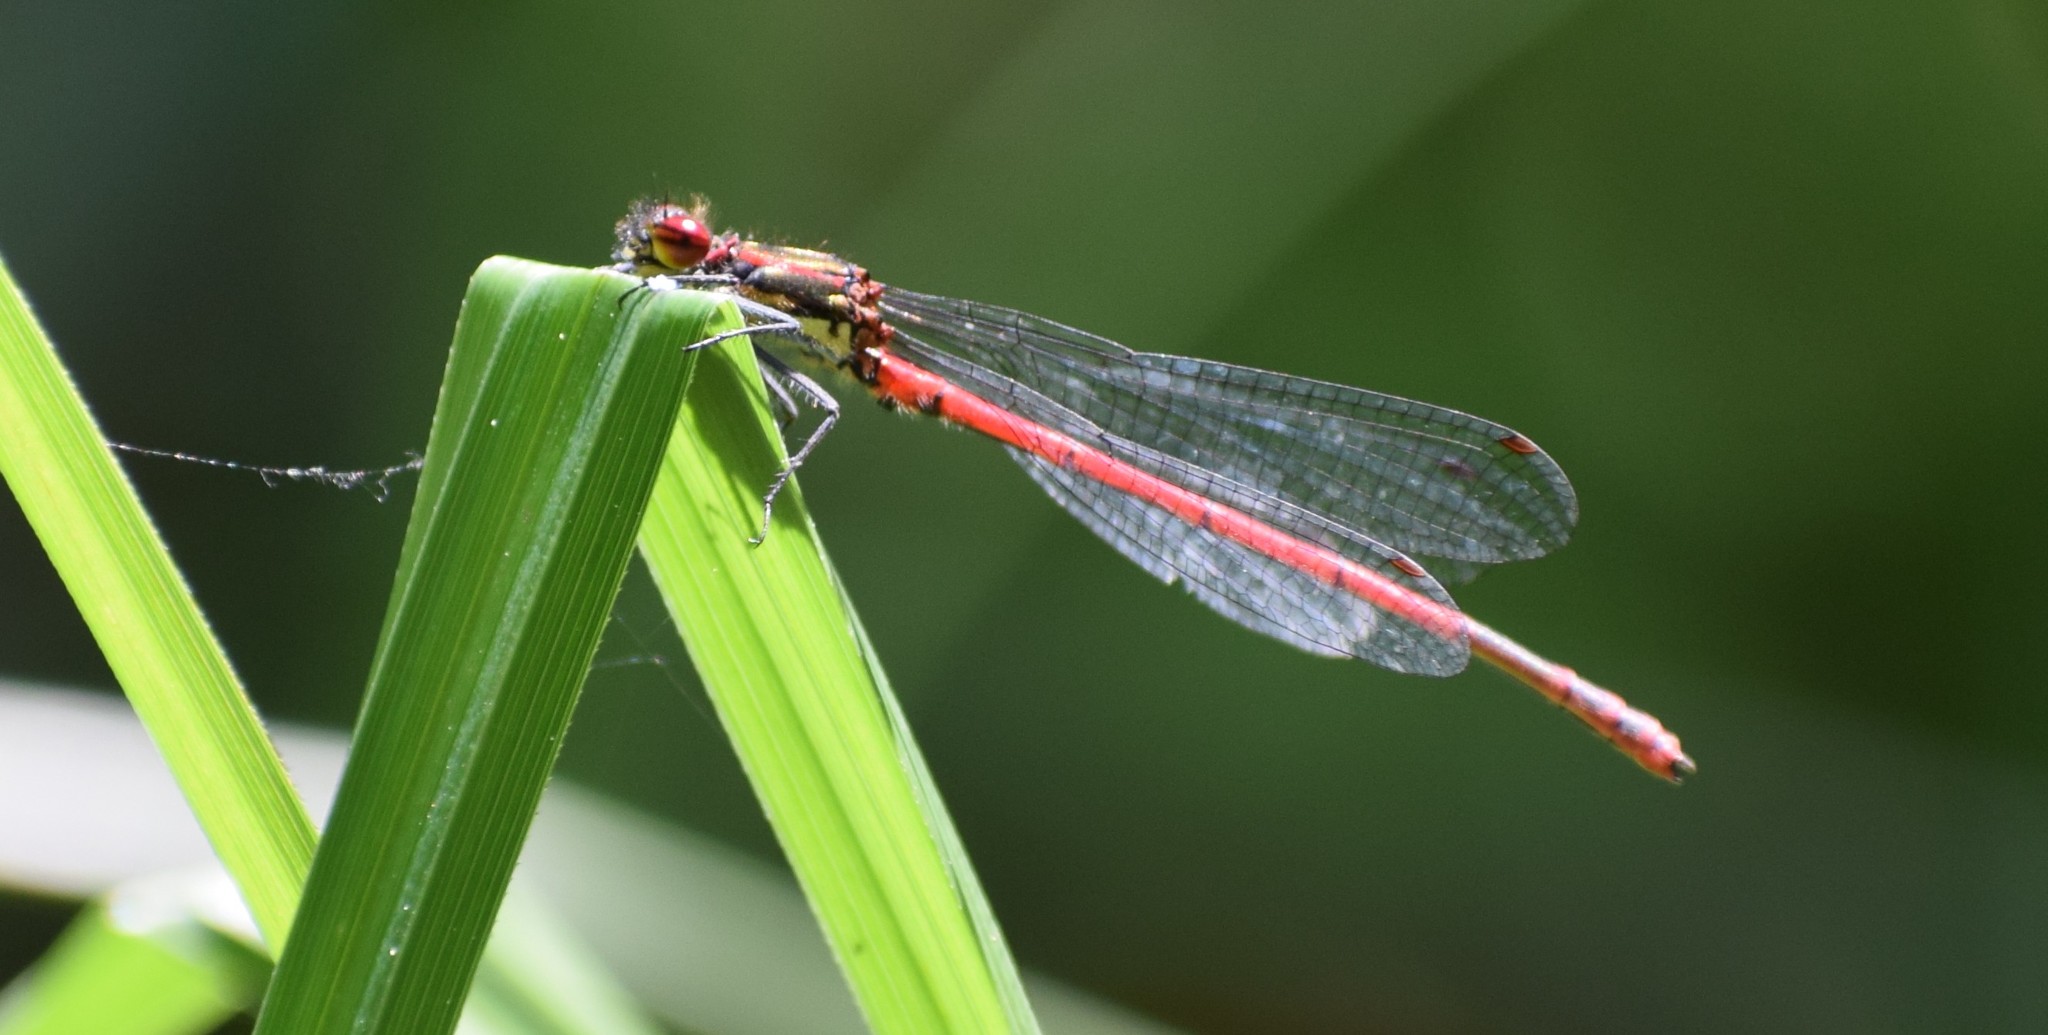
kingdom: Animalia
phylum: Arthropoda
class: Insecta
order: Odonata
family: Coenagrionidae
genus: Pyrrhosoma
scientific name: Pyrrhosoma nymphula
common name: Large red damsel
